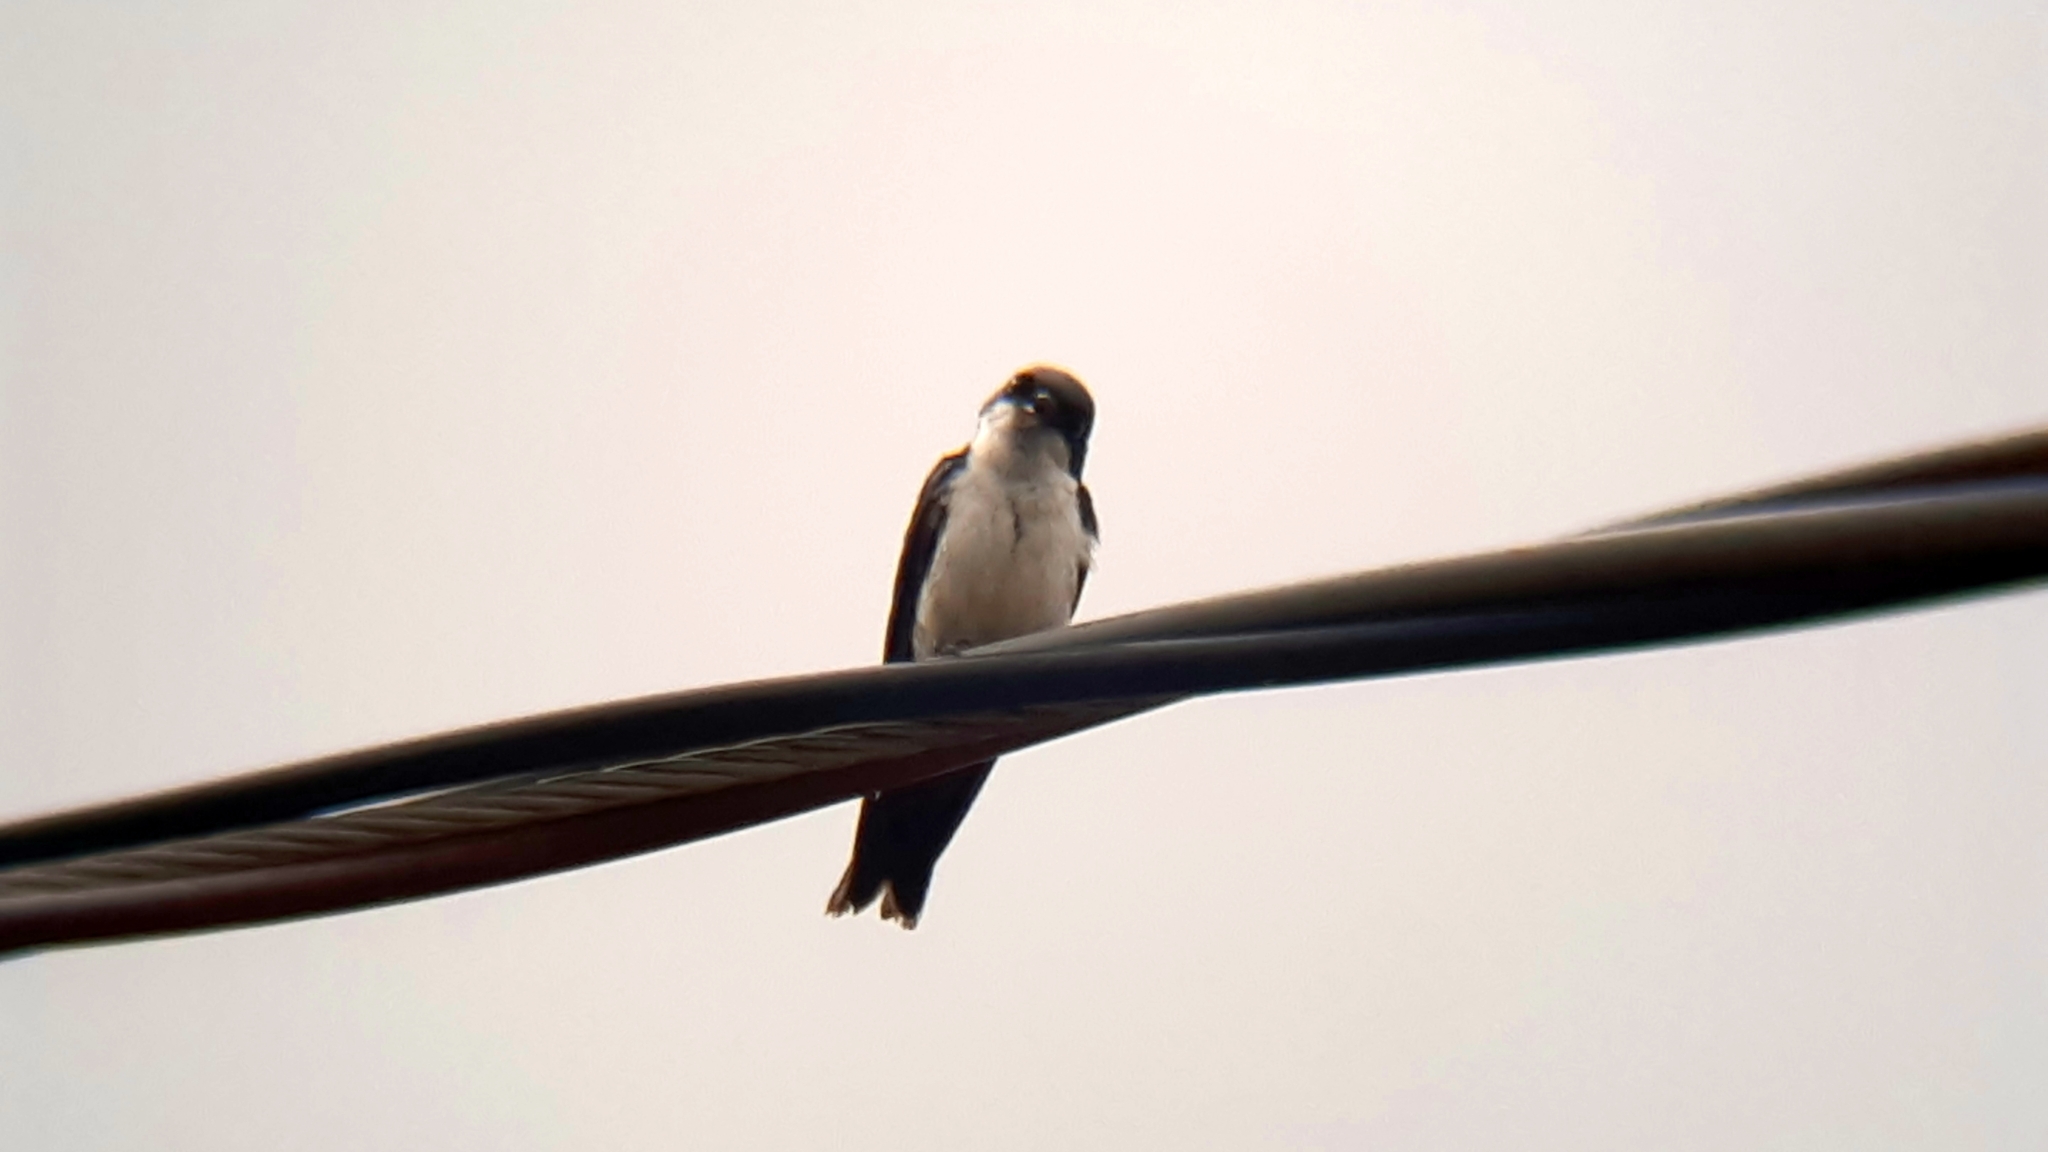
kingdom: Animalia
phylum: Chordata
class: Aves
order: Passeriformes
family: Hirundinidae
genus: Notiochelidon
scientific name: Notiochelidon cyanoleuca
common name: Blue-and-white swallow
